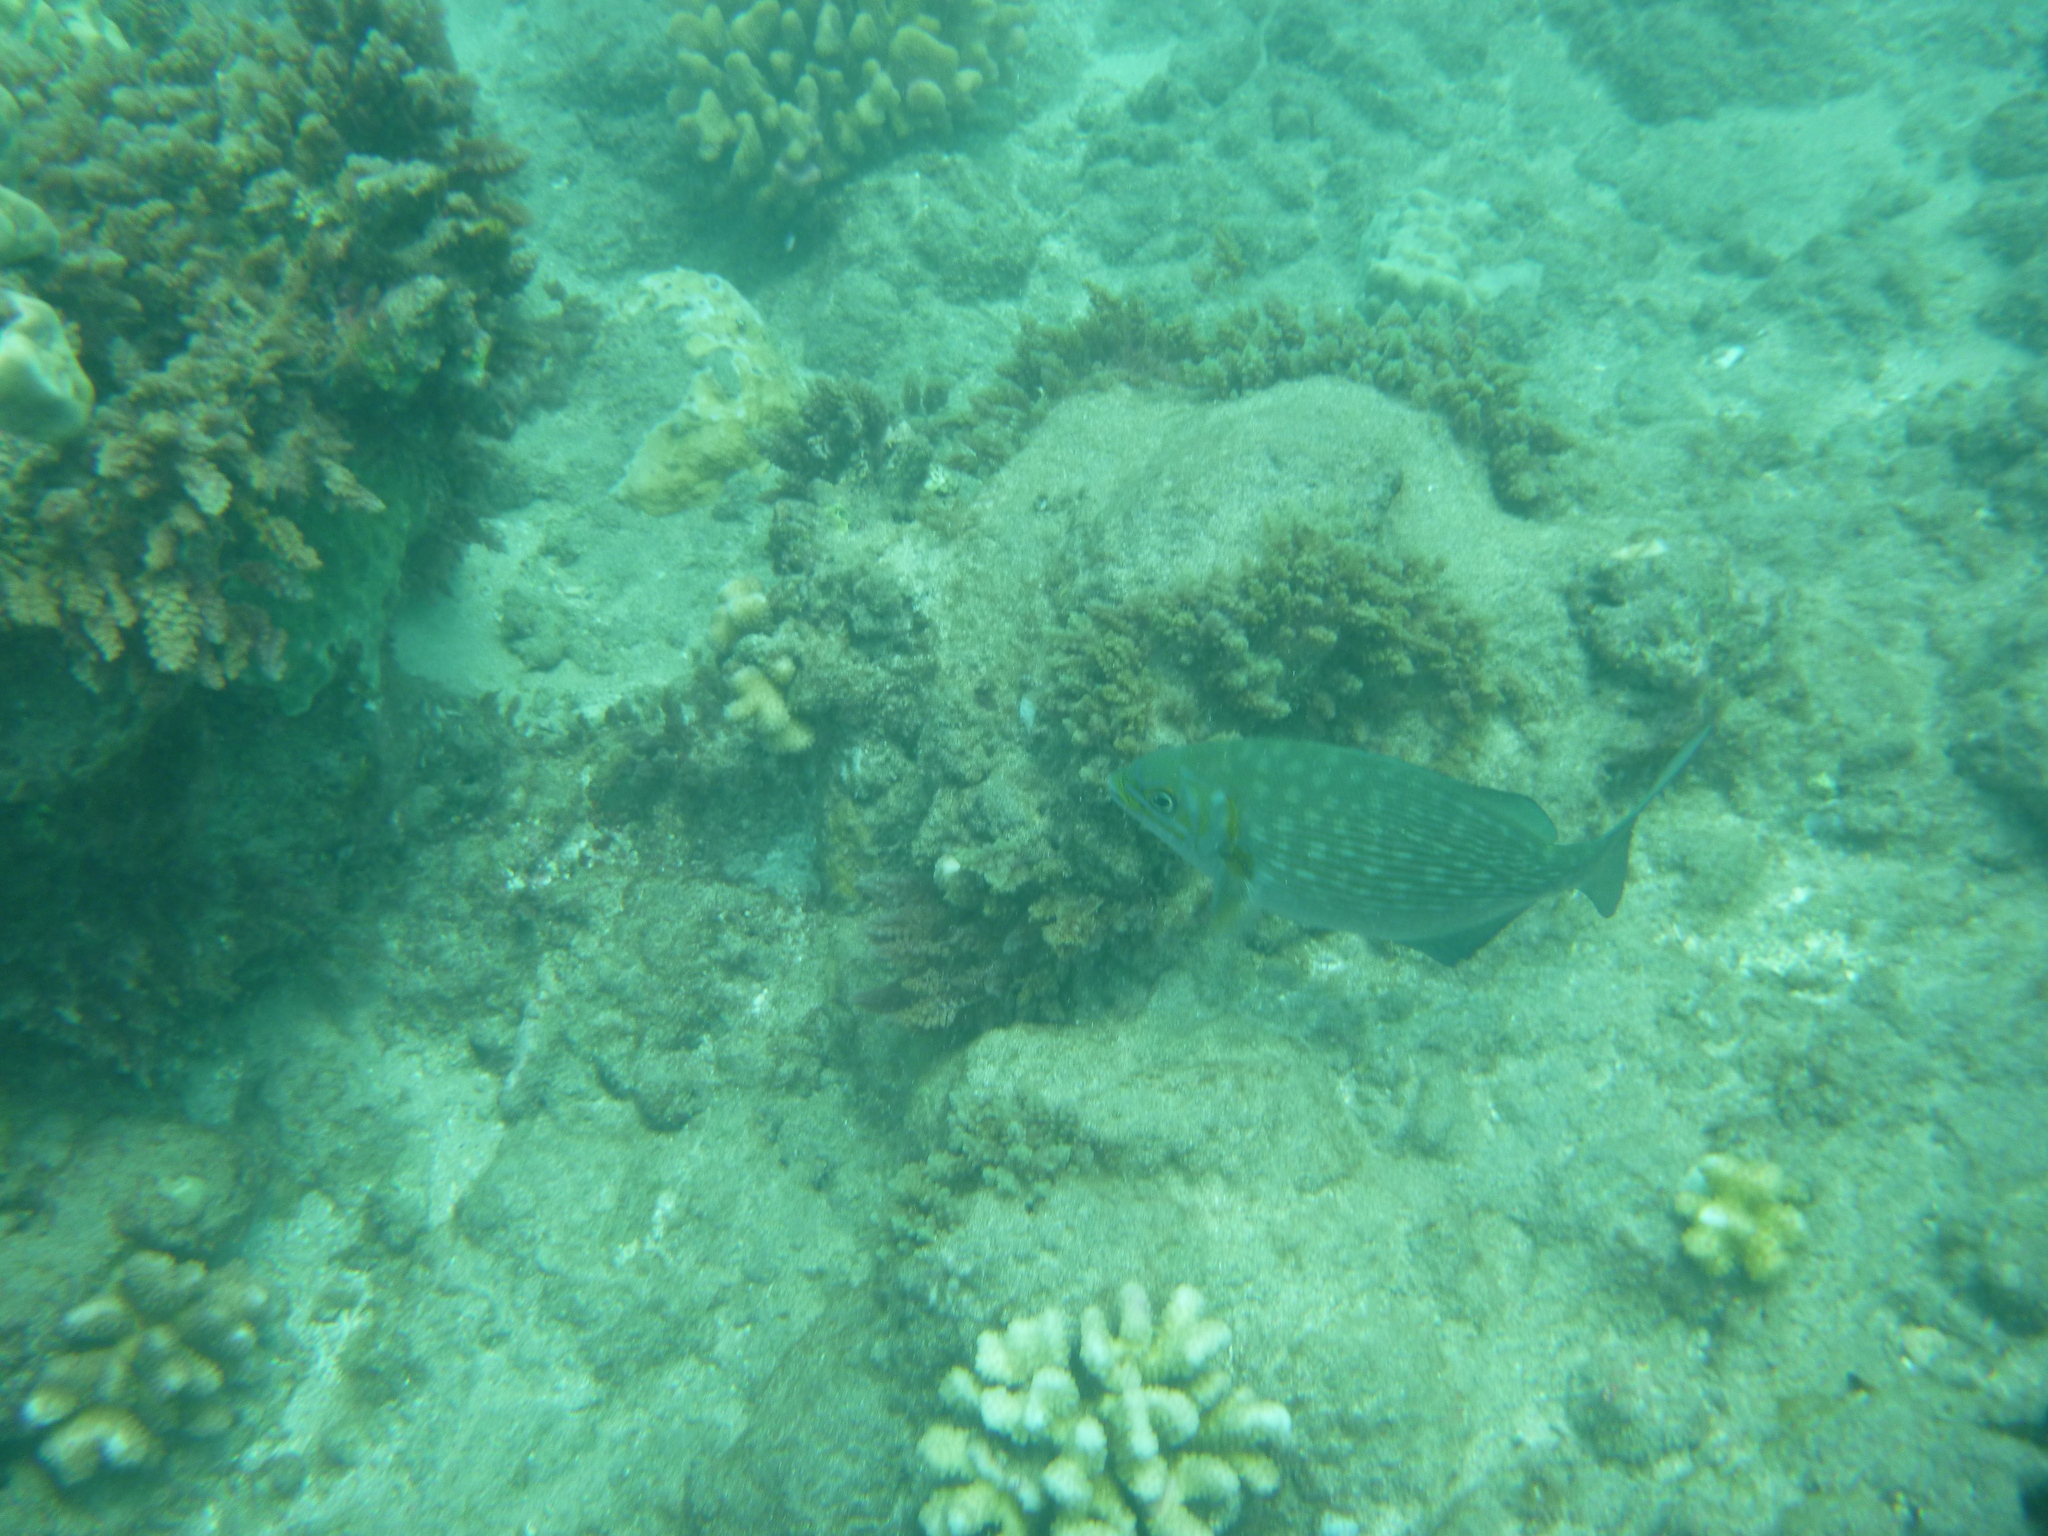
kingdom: Animalia
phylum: Chordata
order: Perciformes
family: Kyphosidae
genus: Kyphosus
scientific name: Kyphosus vaigiensis
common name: Brassy chub
